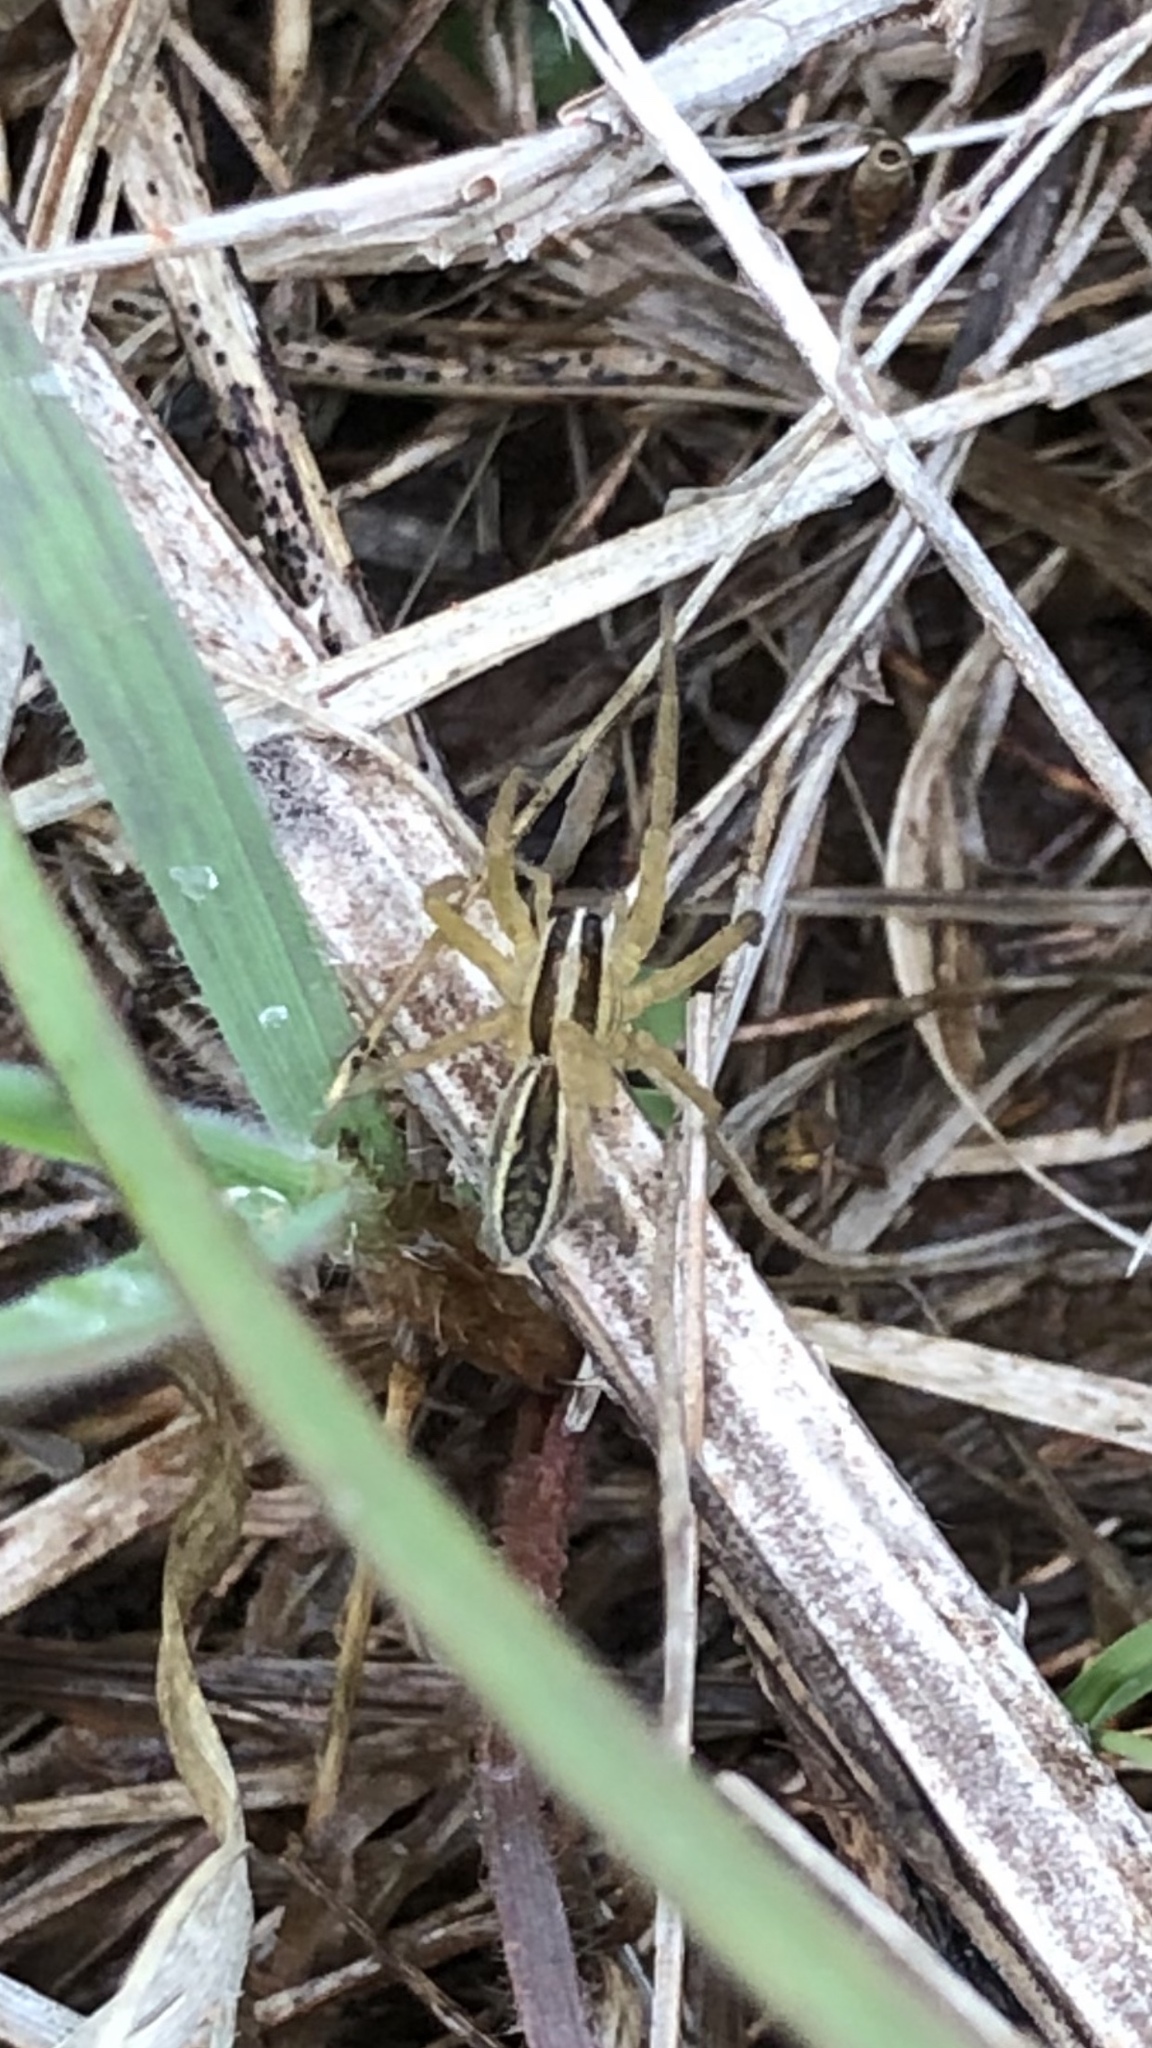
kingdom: Animalia
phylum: Arthropoda
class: Arachnida
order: Araneae
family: Lycosidae
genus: Rabidosa
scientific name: Rabidosa rabida
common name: Rabid wolf spider
